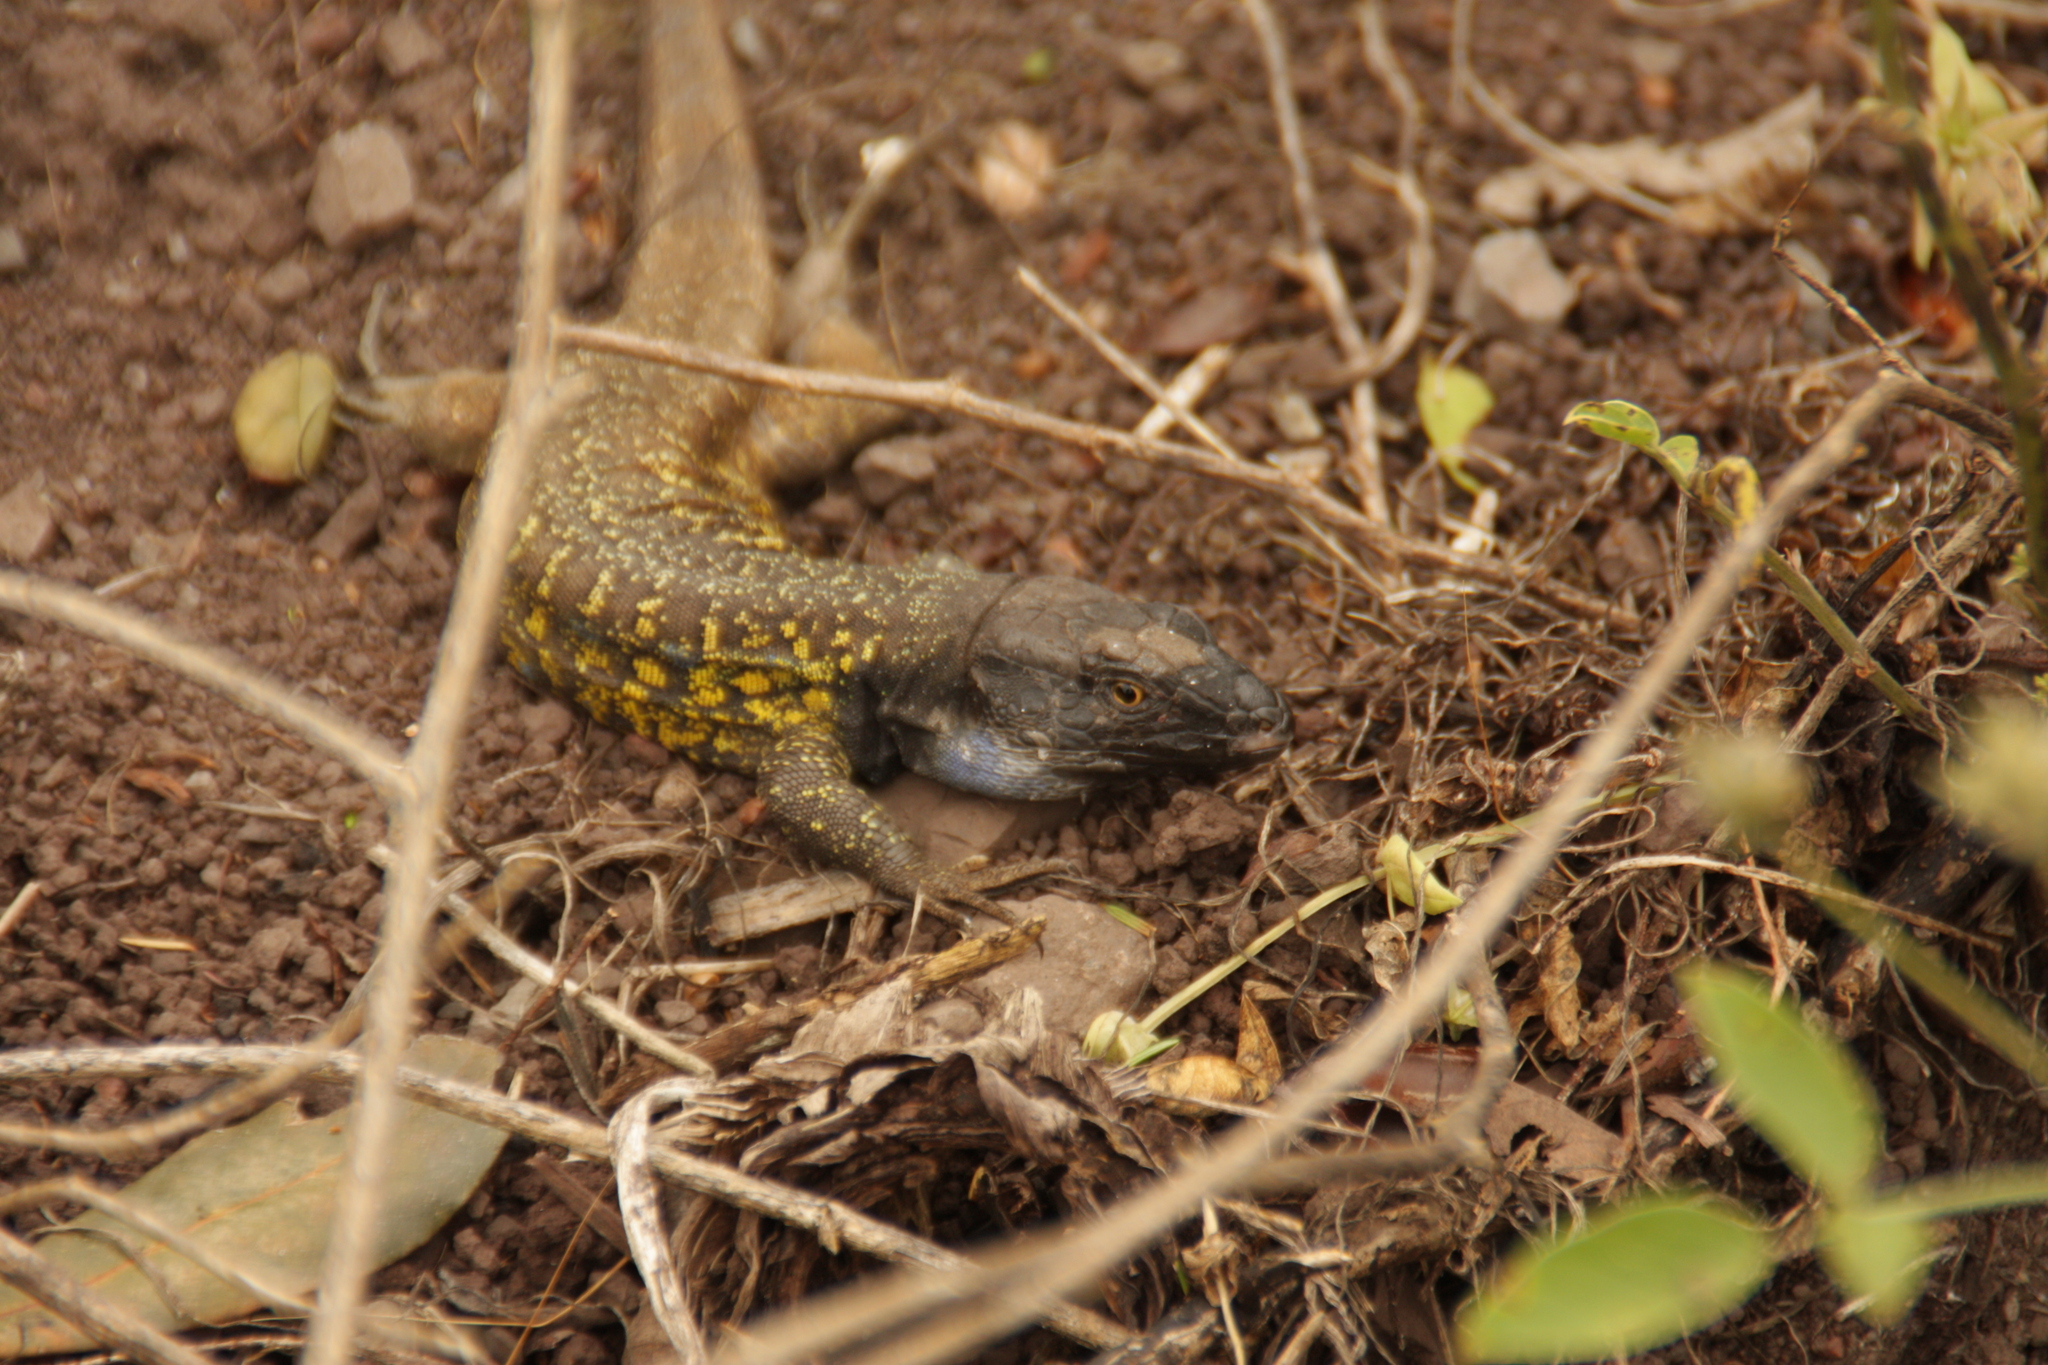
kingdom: Animalia
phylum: Chordata
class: Squamata
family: Lacertidae
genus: Gallotia
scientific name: Gallotia galloti
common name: Gallot's lizard
